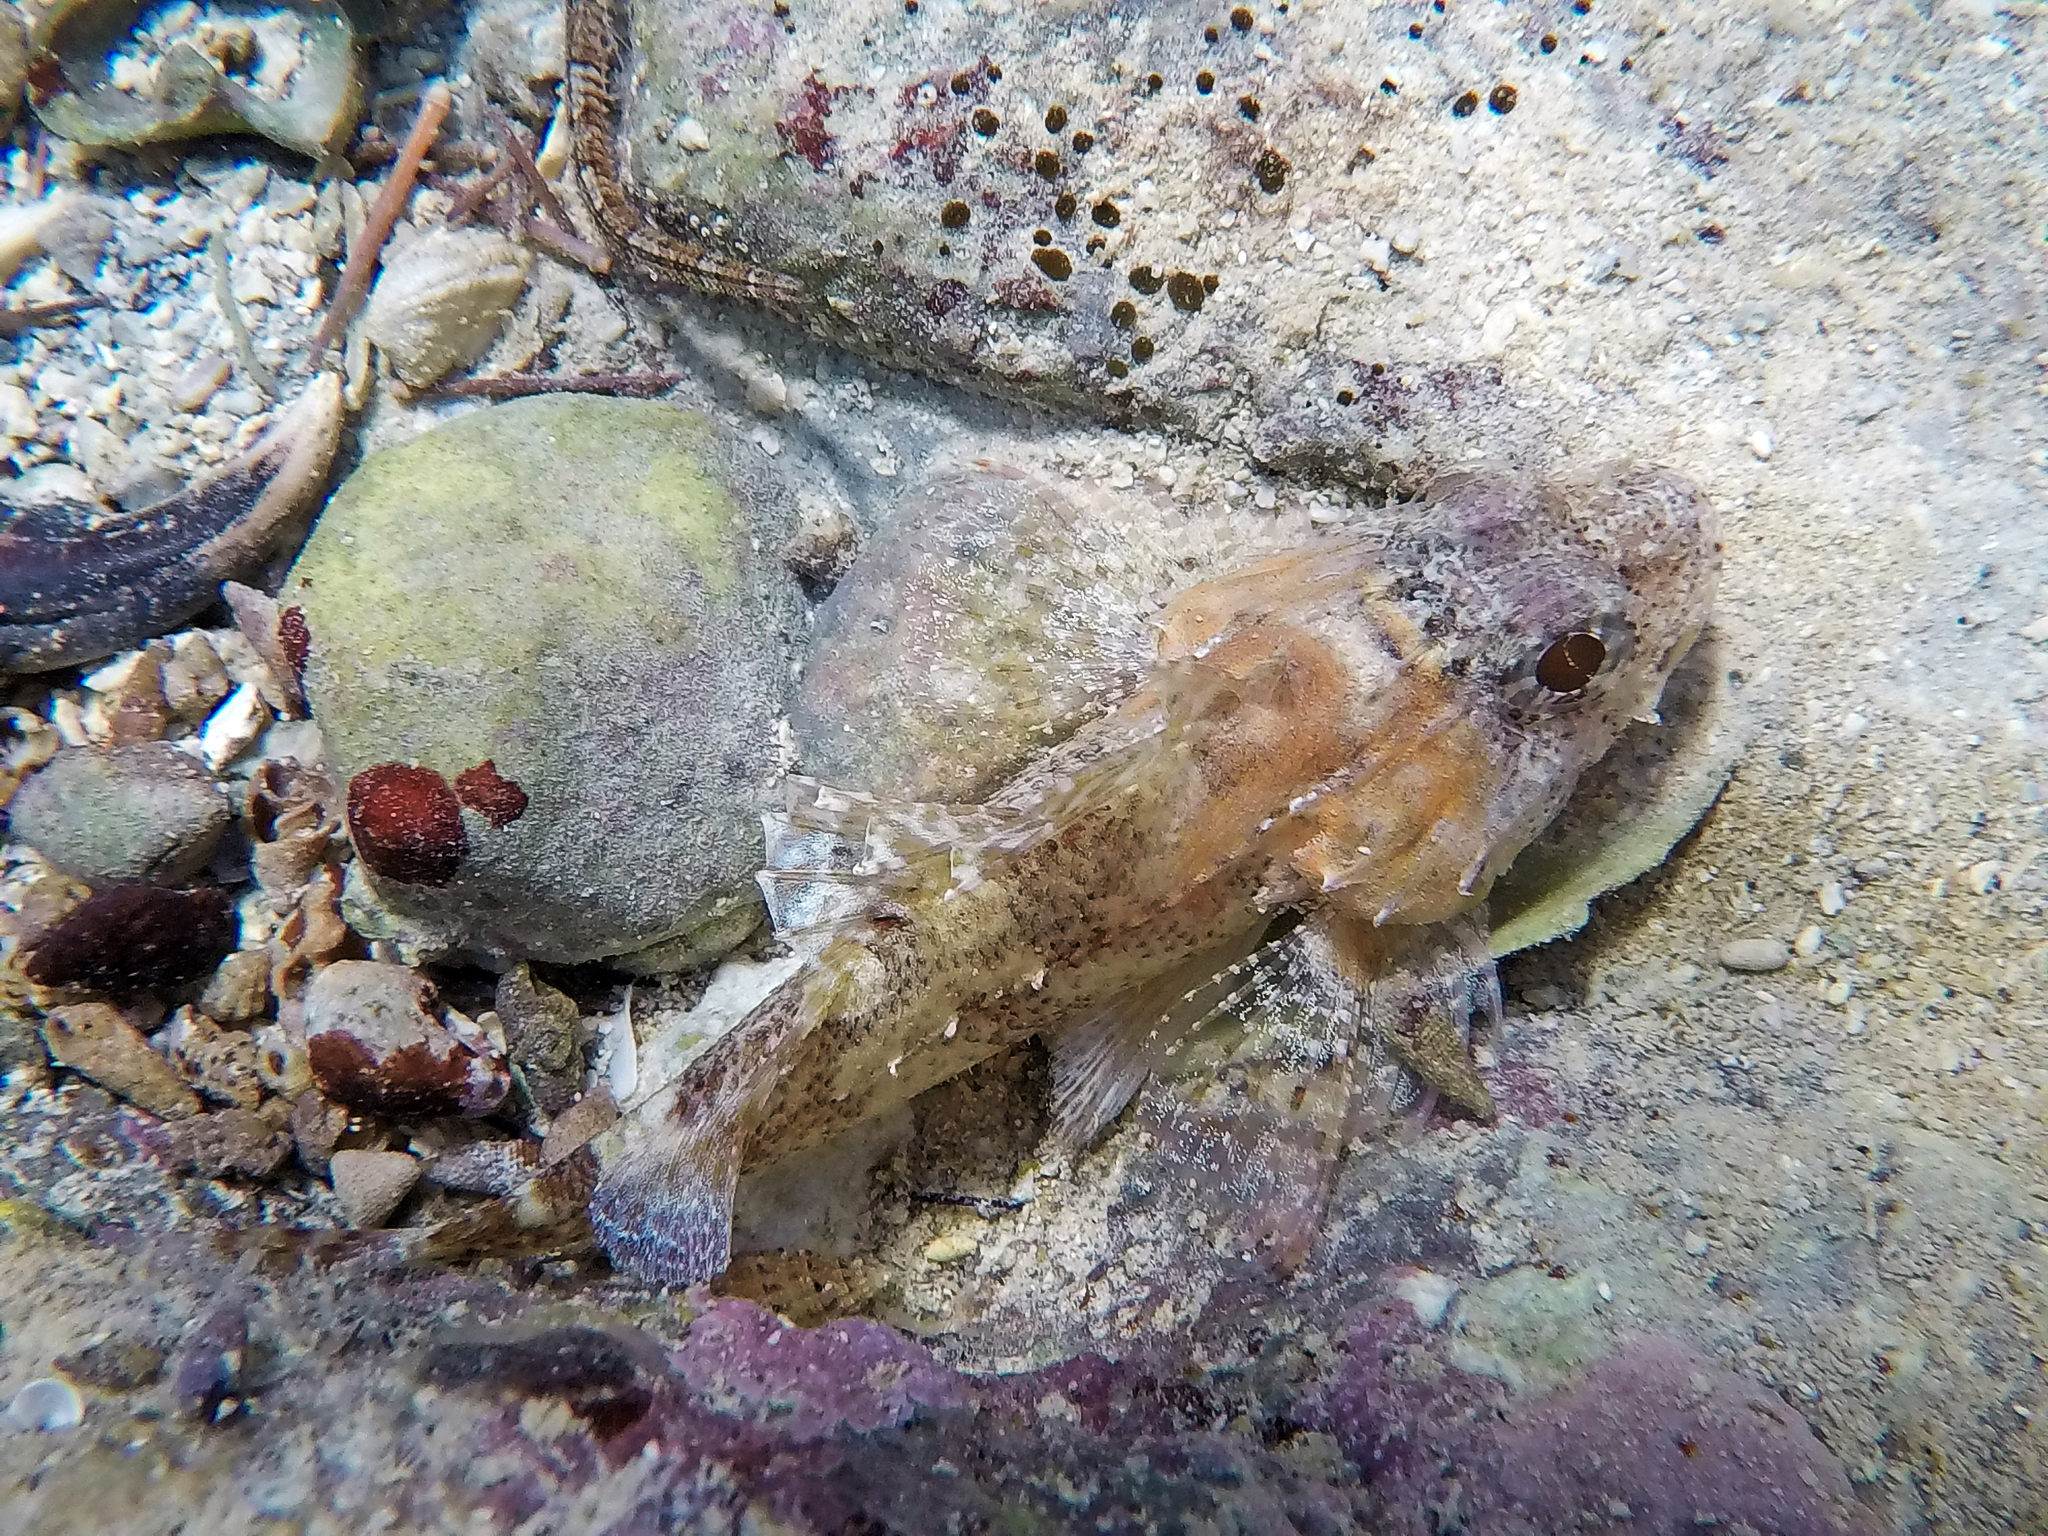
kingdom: Animalia
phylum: Chordata
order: Scorpaeniformes
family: Scorpaenidae
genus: Scorpaena
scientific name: Scorpaena maderensis
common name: Madeira rockfish
